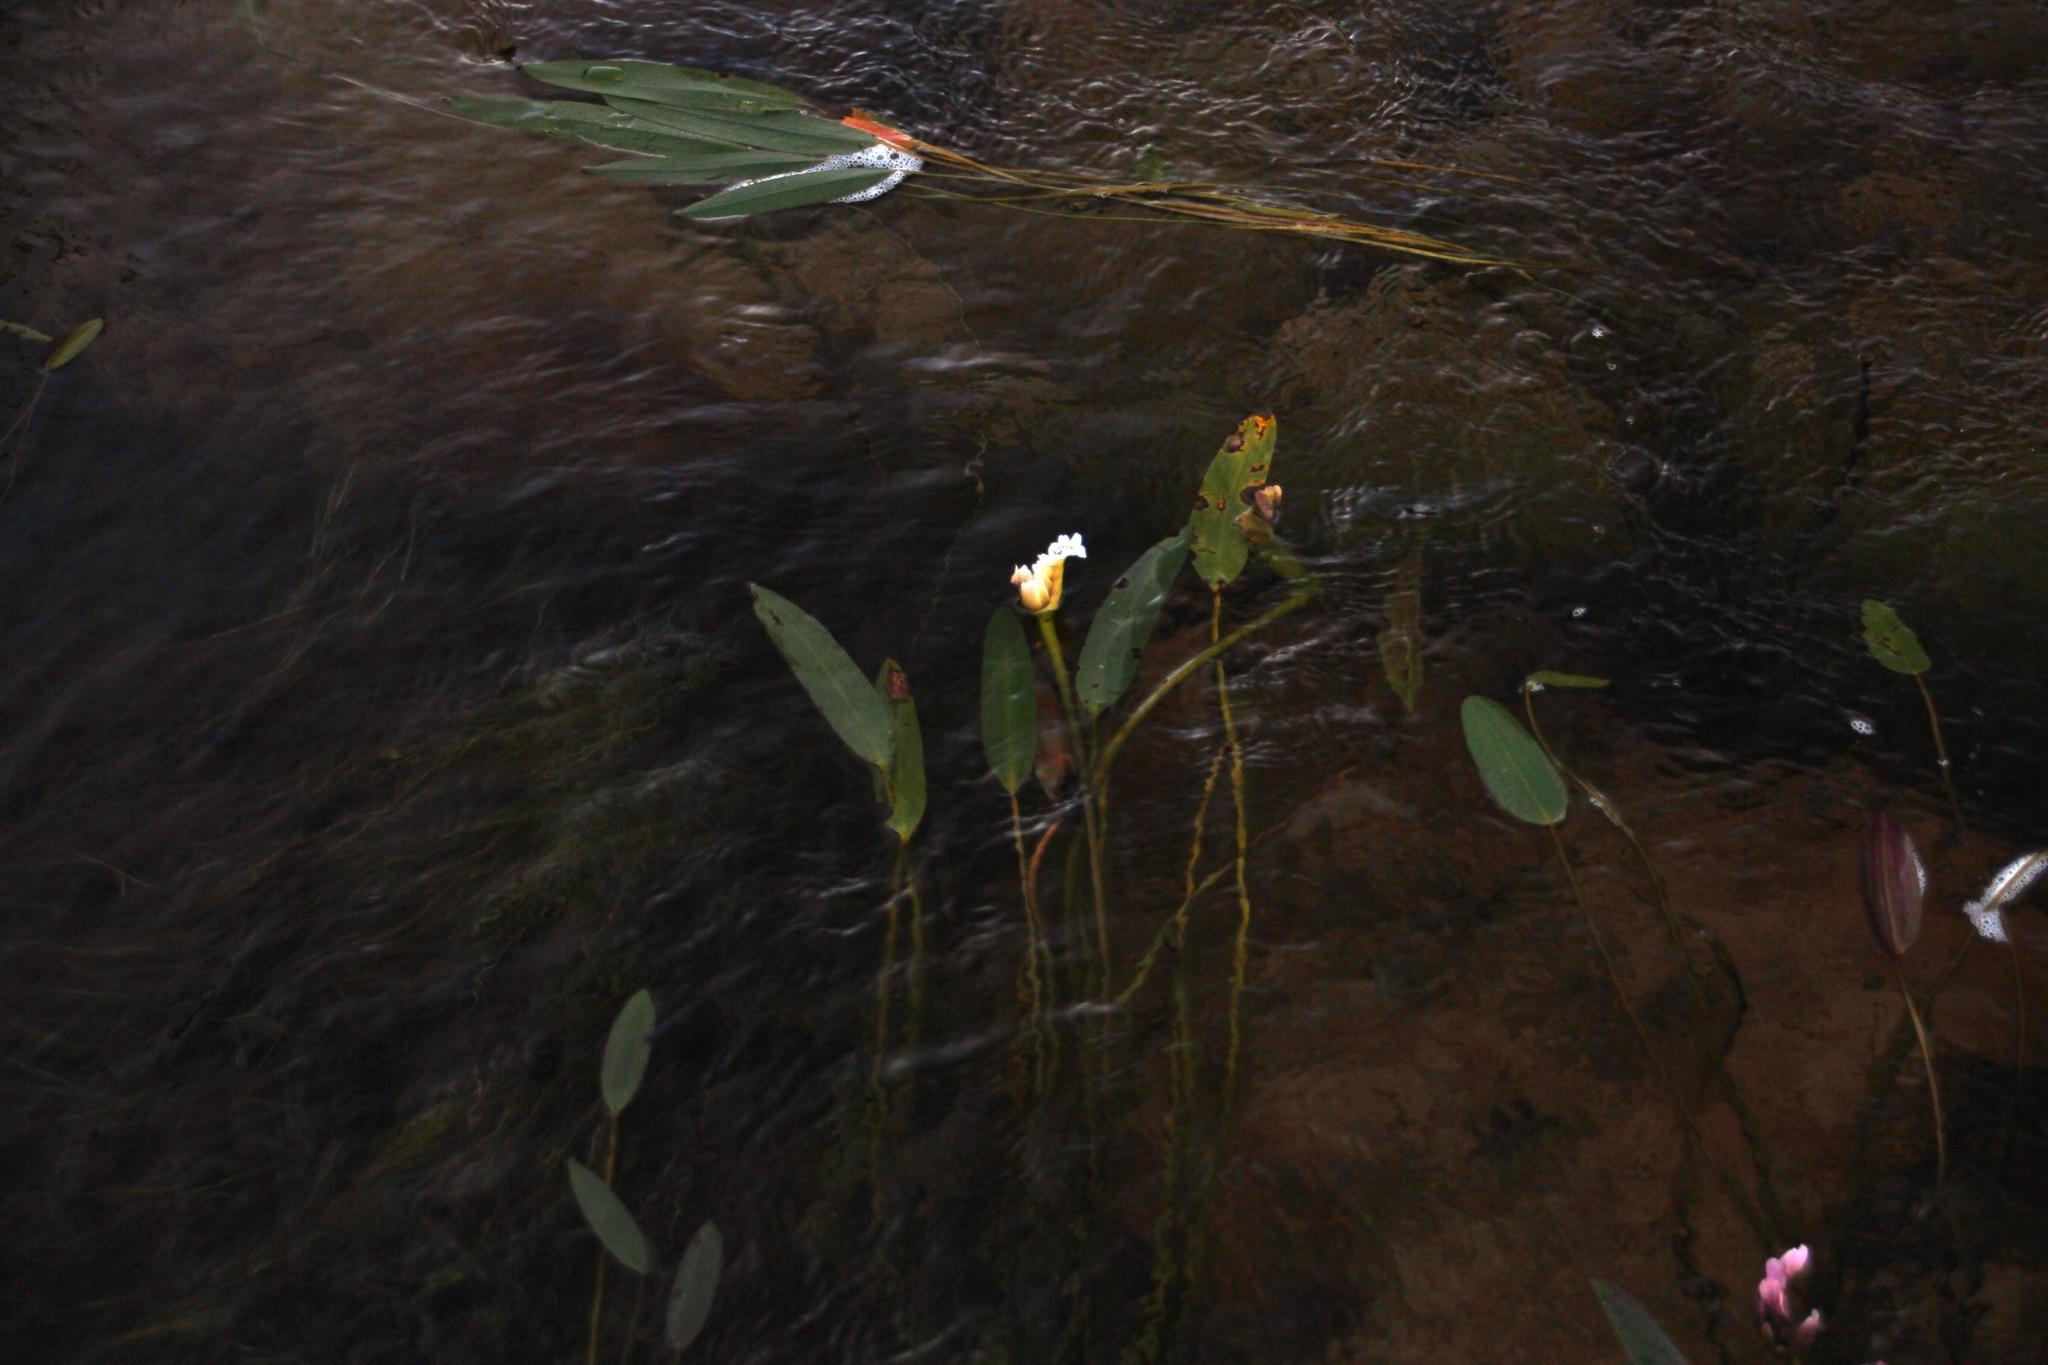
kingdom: Plantae
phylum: Tracheophyta
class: Liliopsida
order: Alismatales
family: Aponogetonaceae
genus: Aponogeton
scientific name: Aponogeton distachyos
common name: Cape-pondweed
